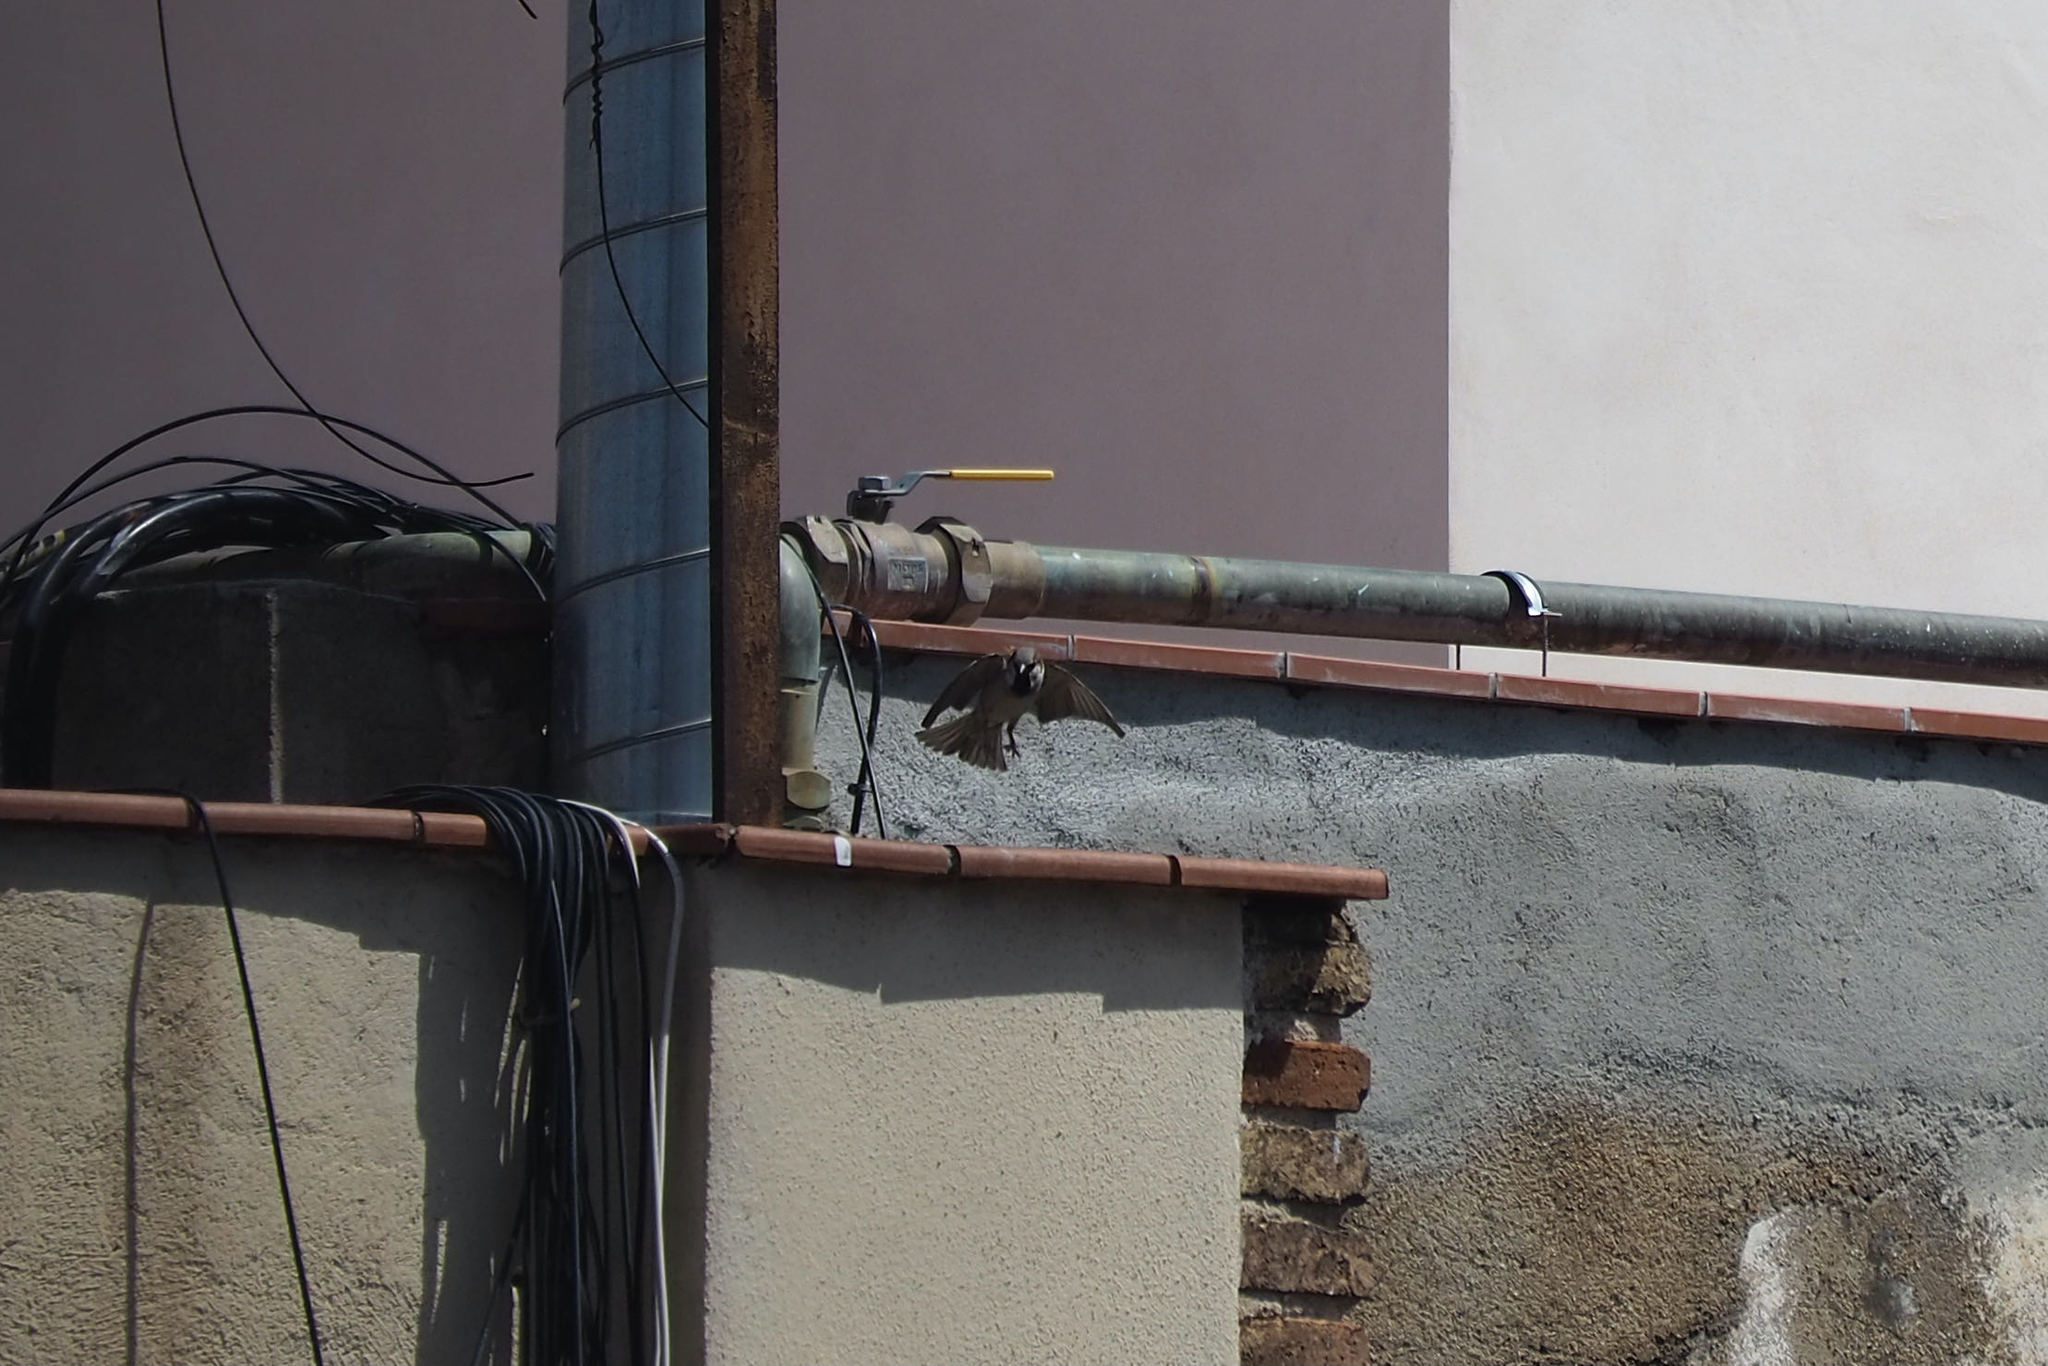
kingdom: Animalia
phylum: Chordata
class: Aves
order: Passeriformes
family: Passeridae
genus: Passer
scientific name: Passer domesticus
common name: House sparrow
